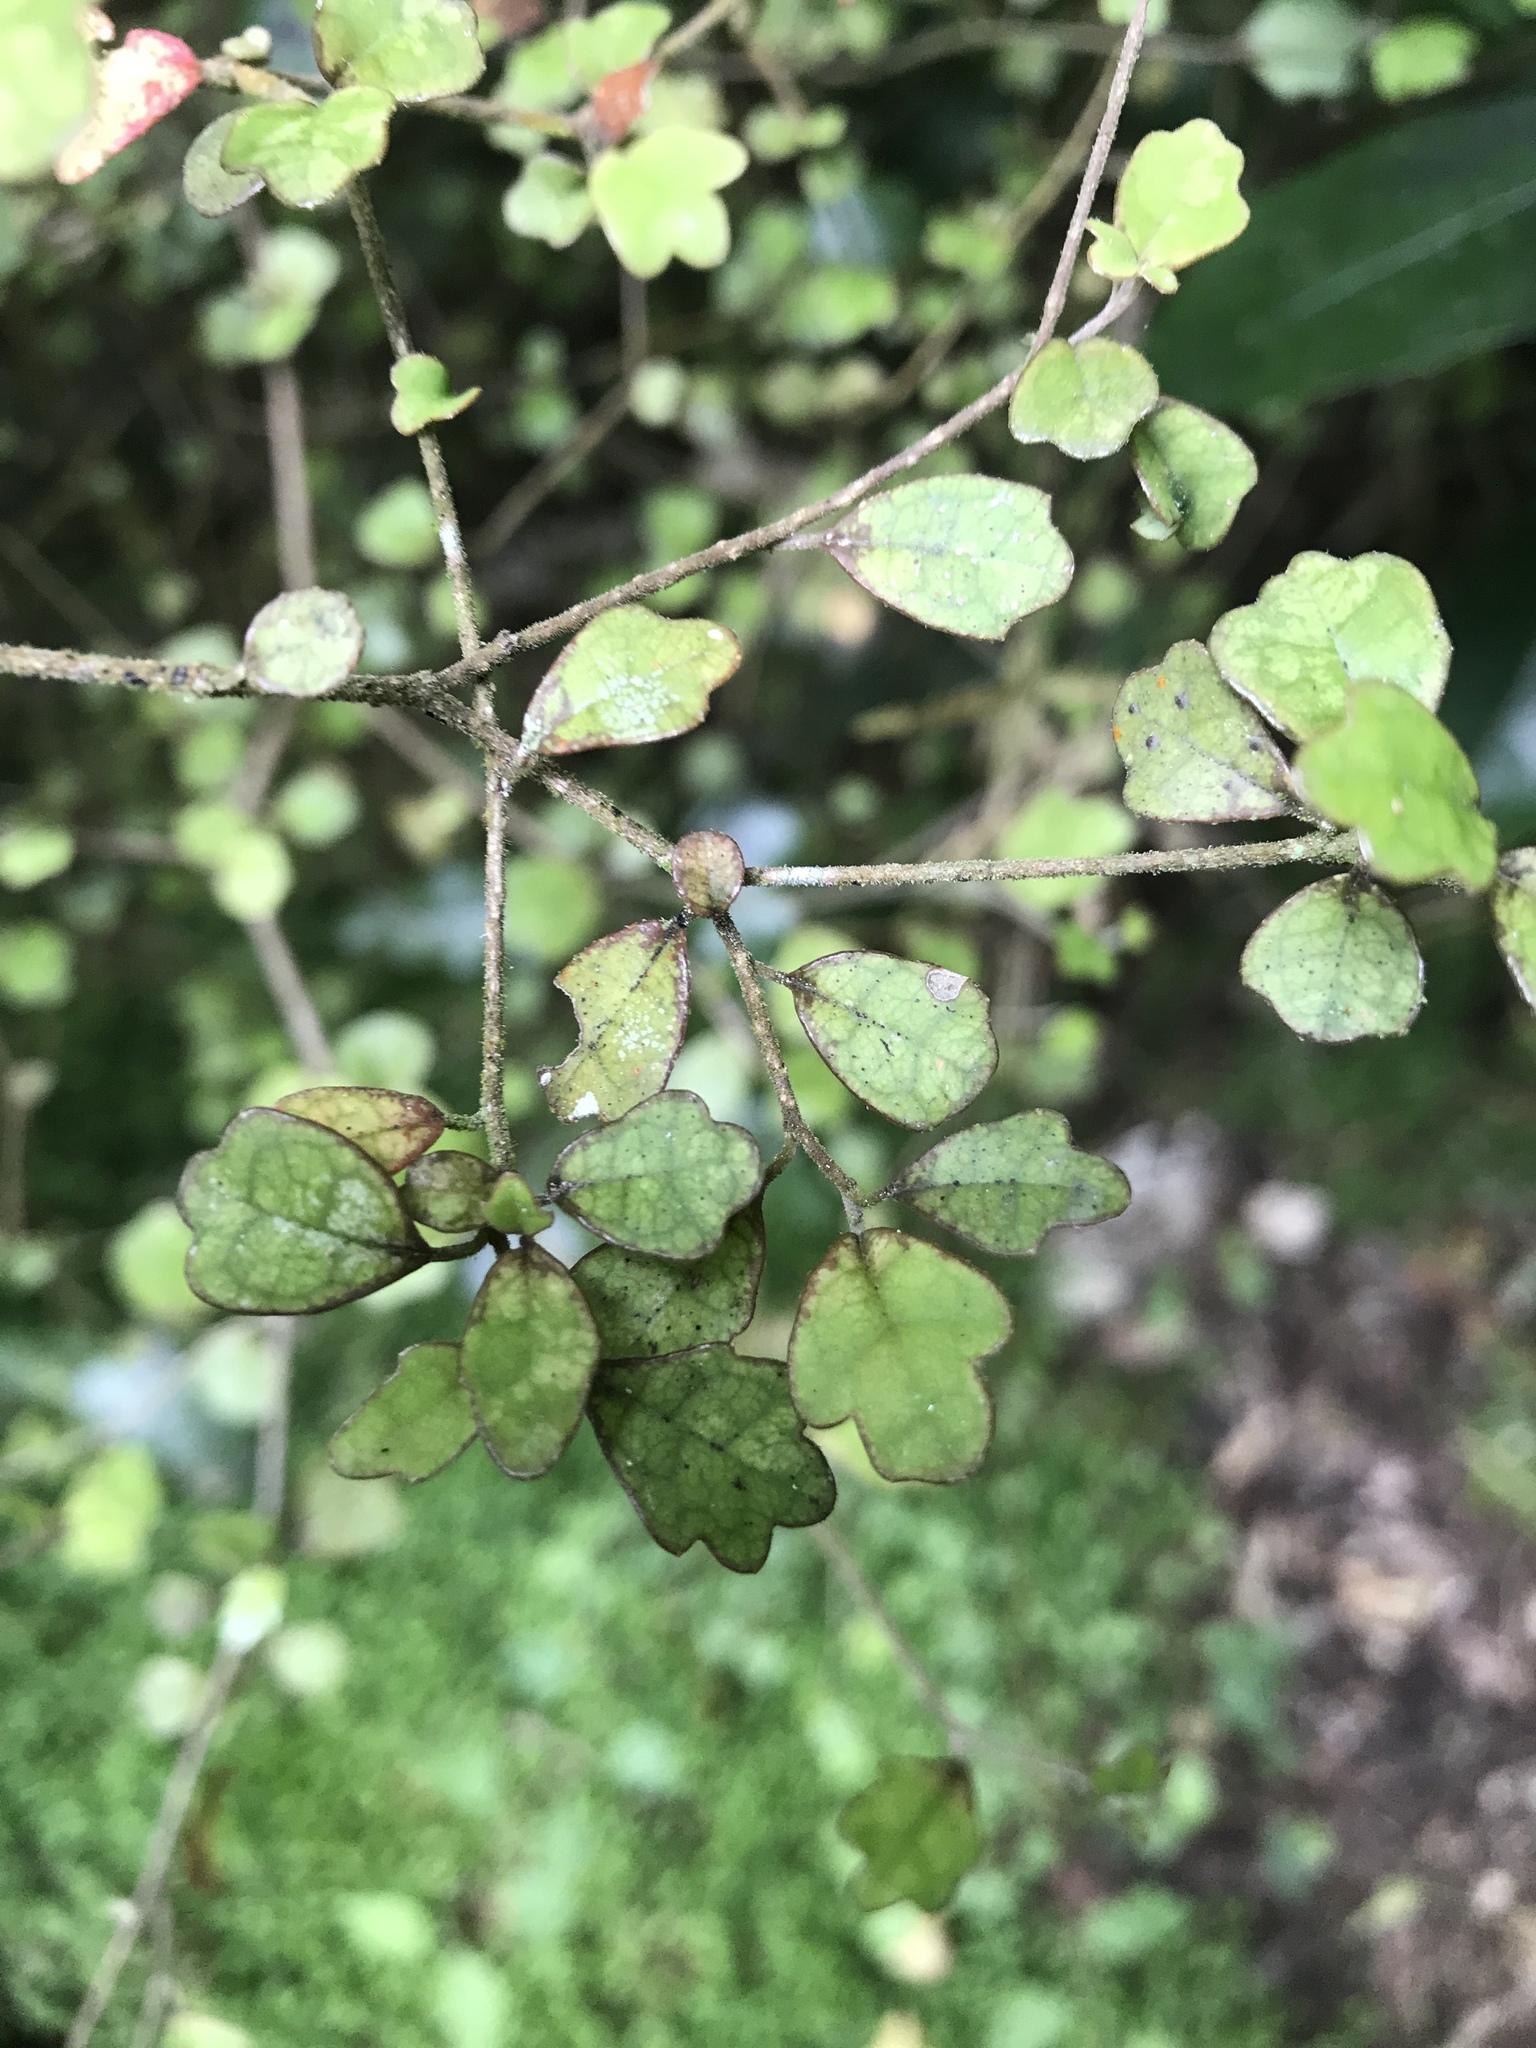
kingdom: Plantae
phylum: Tracheophyta
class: Magnoliopsida
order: Apiales
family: Pennantiaceae
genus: Pennantia
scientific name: Pennantia corymbosa
